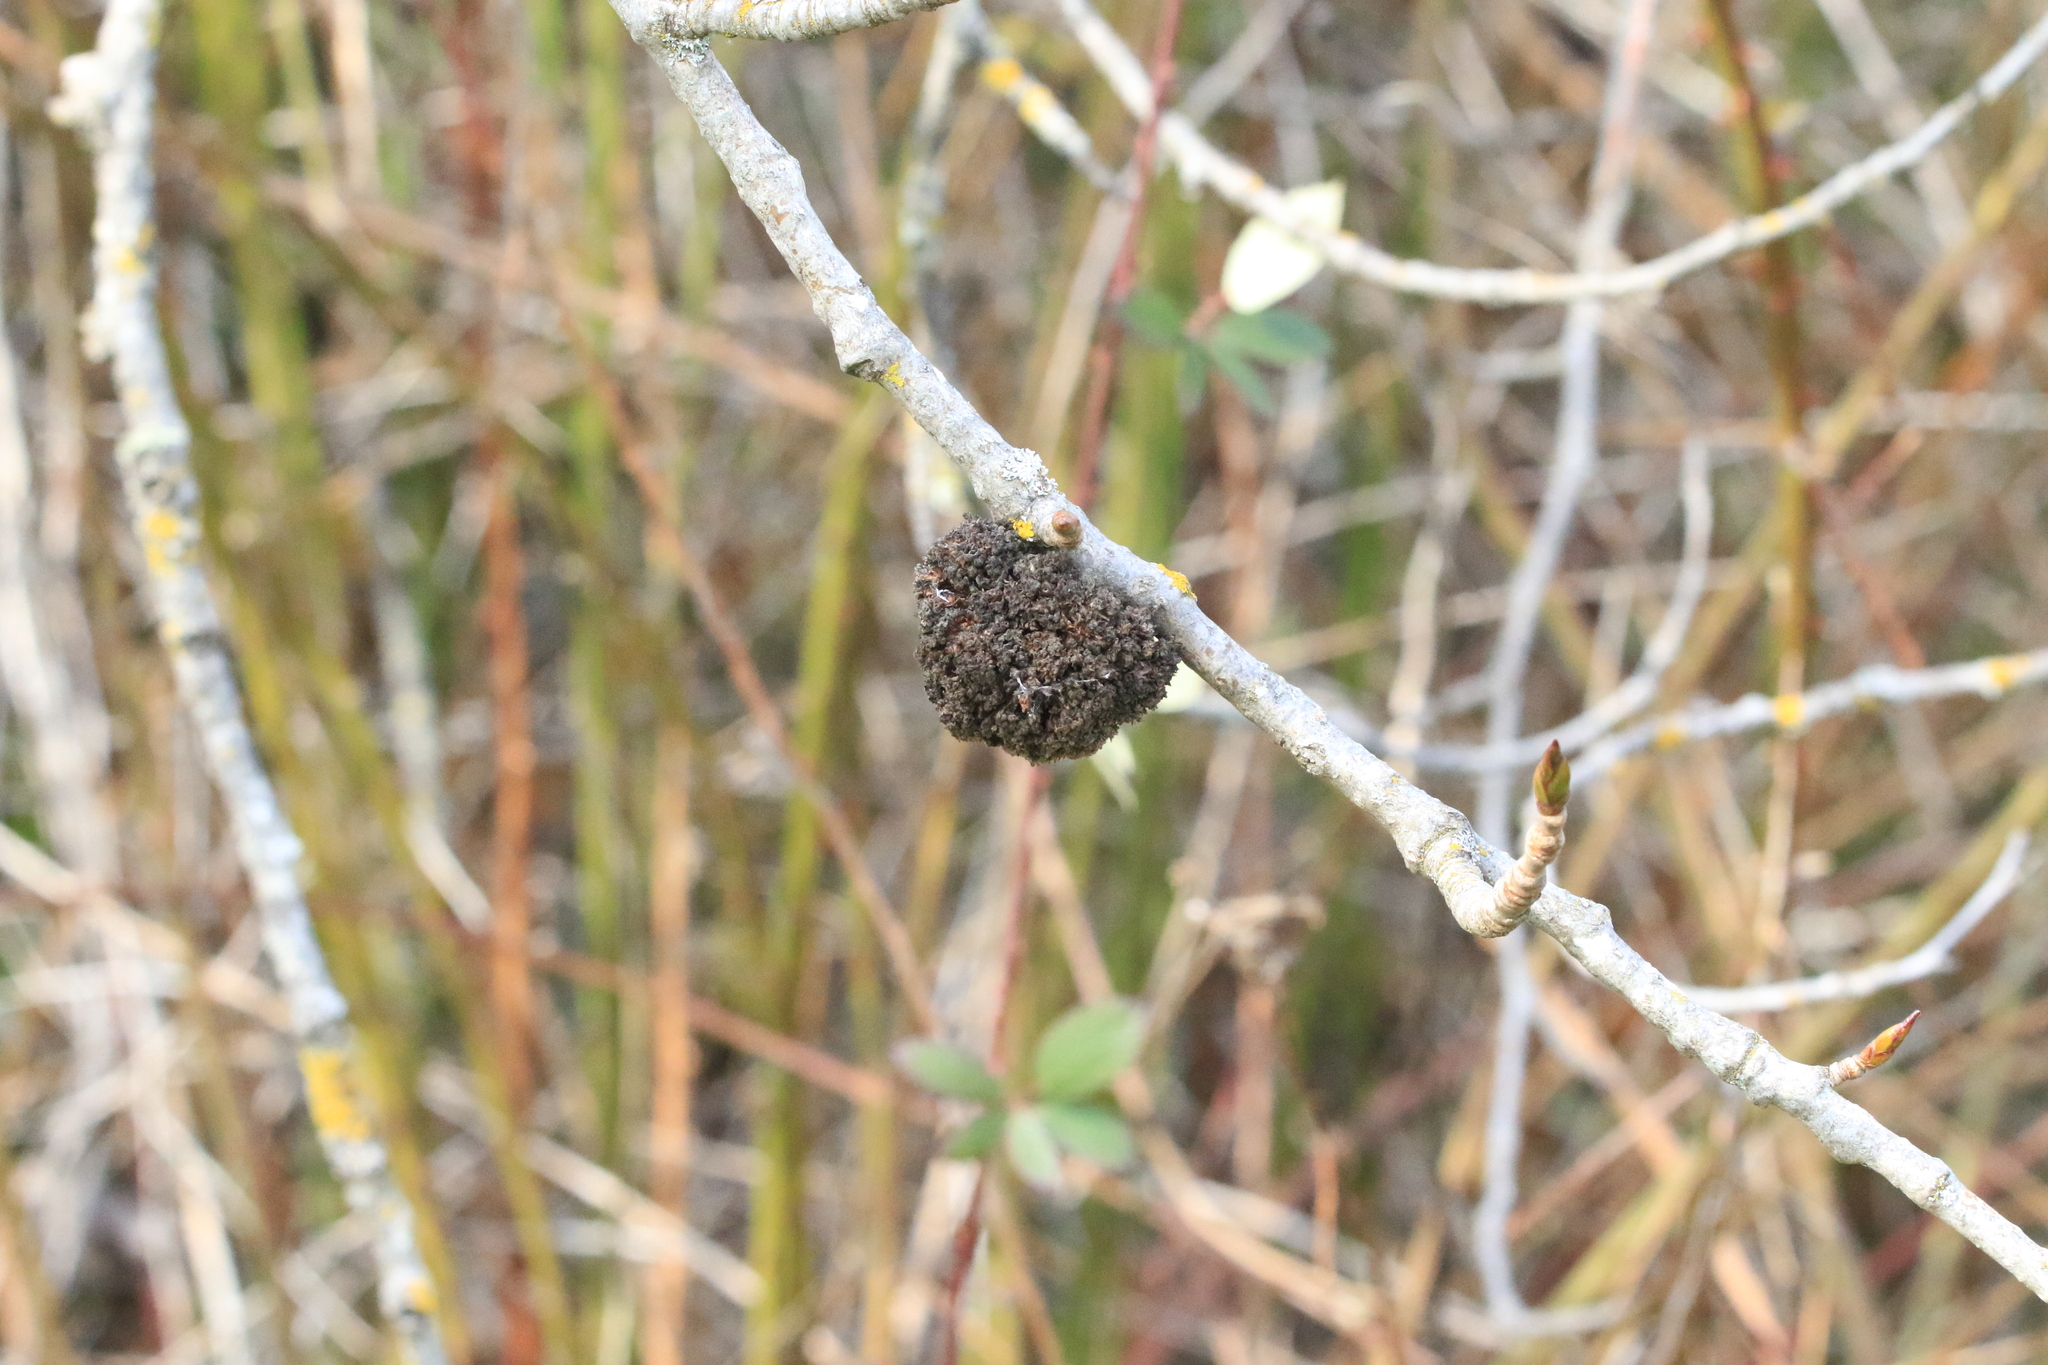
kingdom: Animalia
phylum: Arthropoda
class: Arachnida
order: Trombidiformes
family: Eriophyidae
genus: Aceria
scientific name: Aceria
